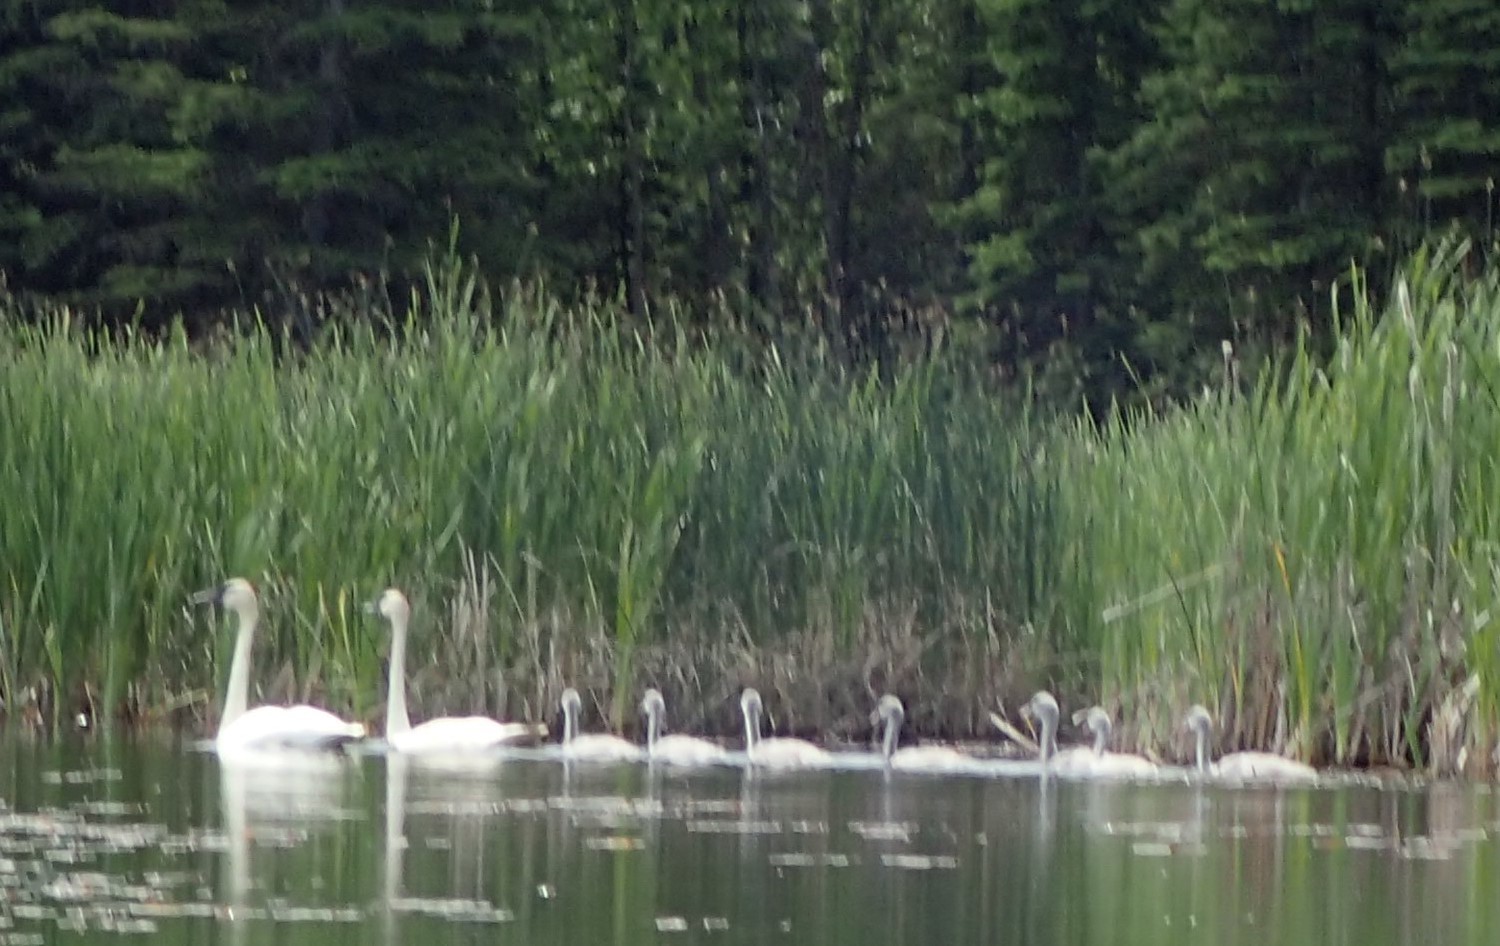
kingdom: Animalia
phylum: Chordata
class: Aves
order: Anseriformes
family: Anatidae
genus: Cygnus
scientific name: Cygnus buccinator
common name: Trumpeter swan
